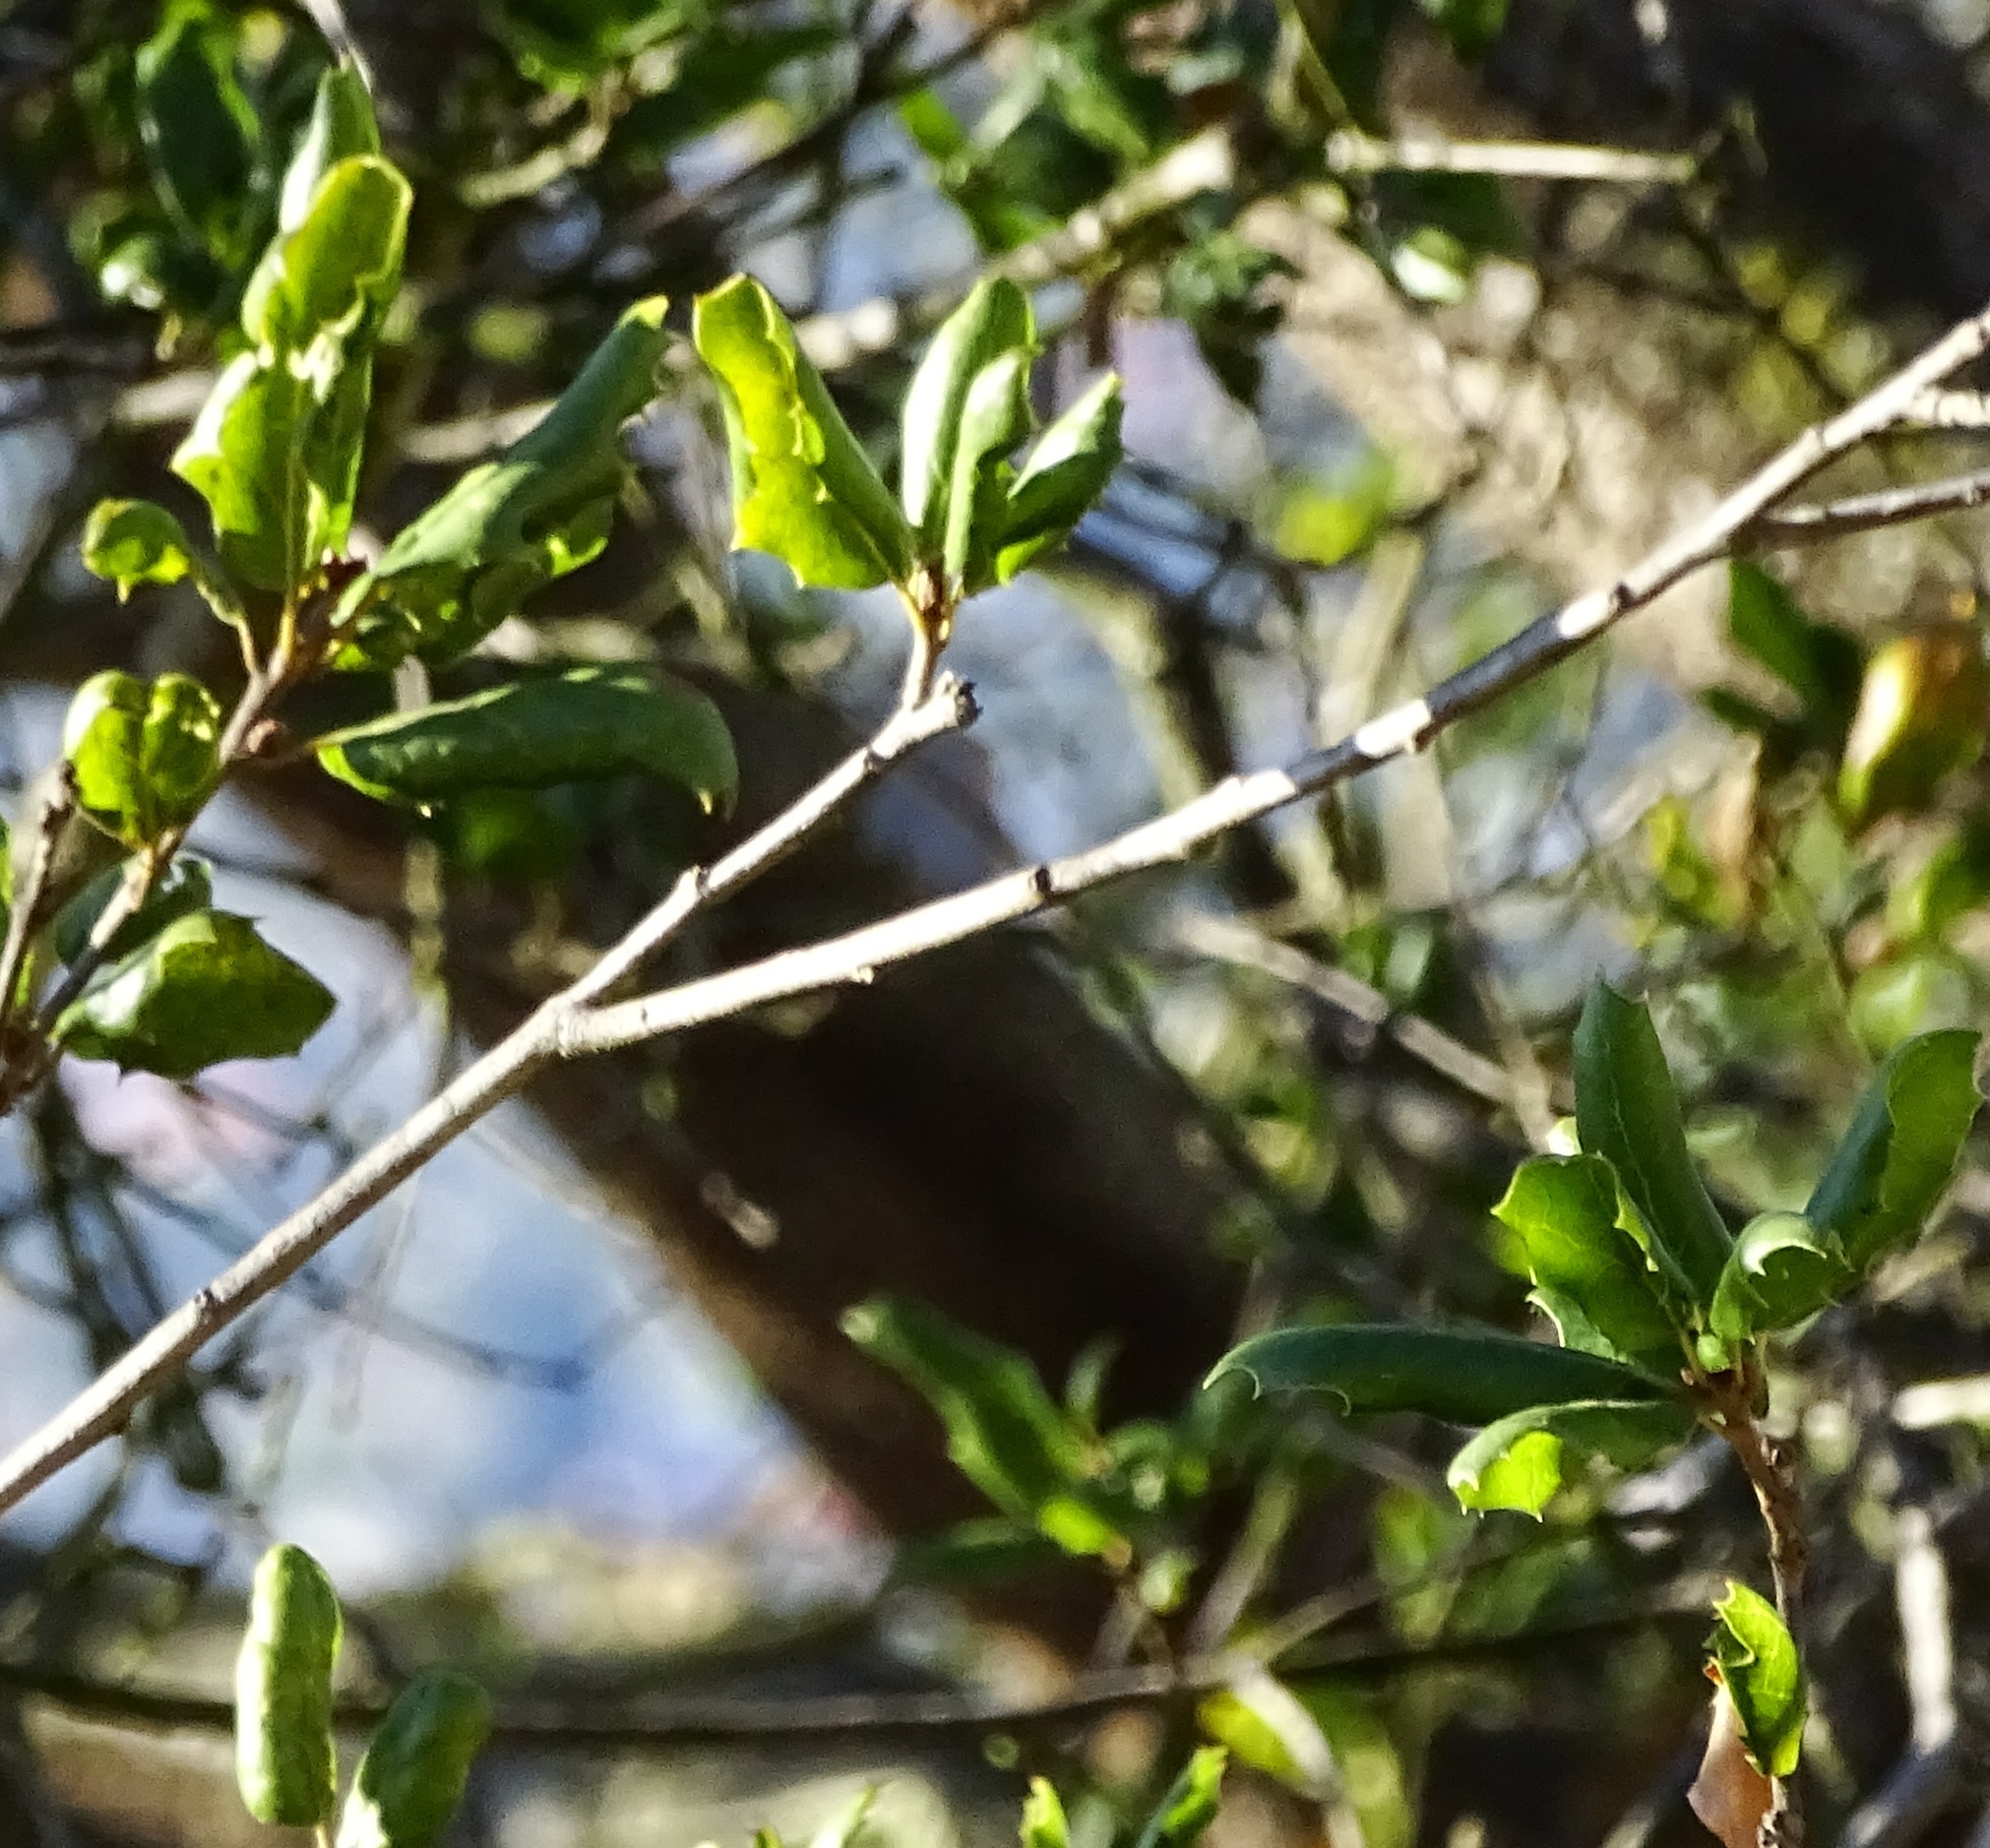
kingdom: Plantae
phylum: Tracheophyta
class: Magnoliopsida
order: Fagales
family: Fagaceae
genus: Quercus
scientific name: Quercus agrifolia
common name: California live oak
